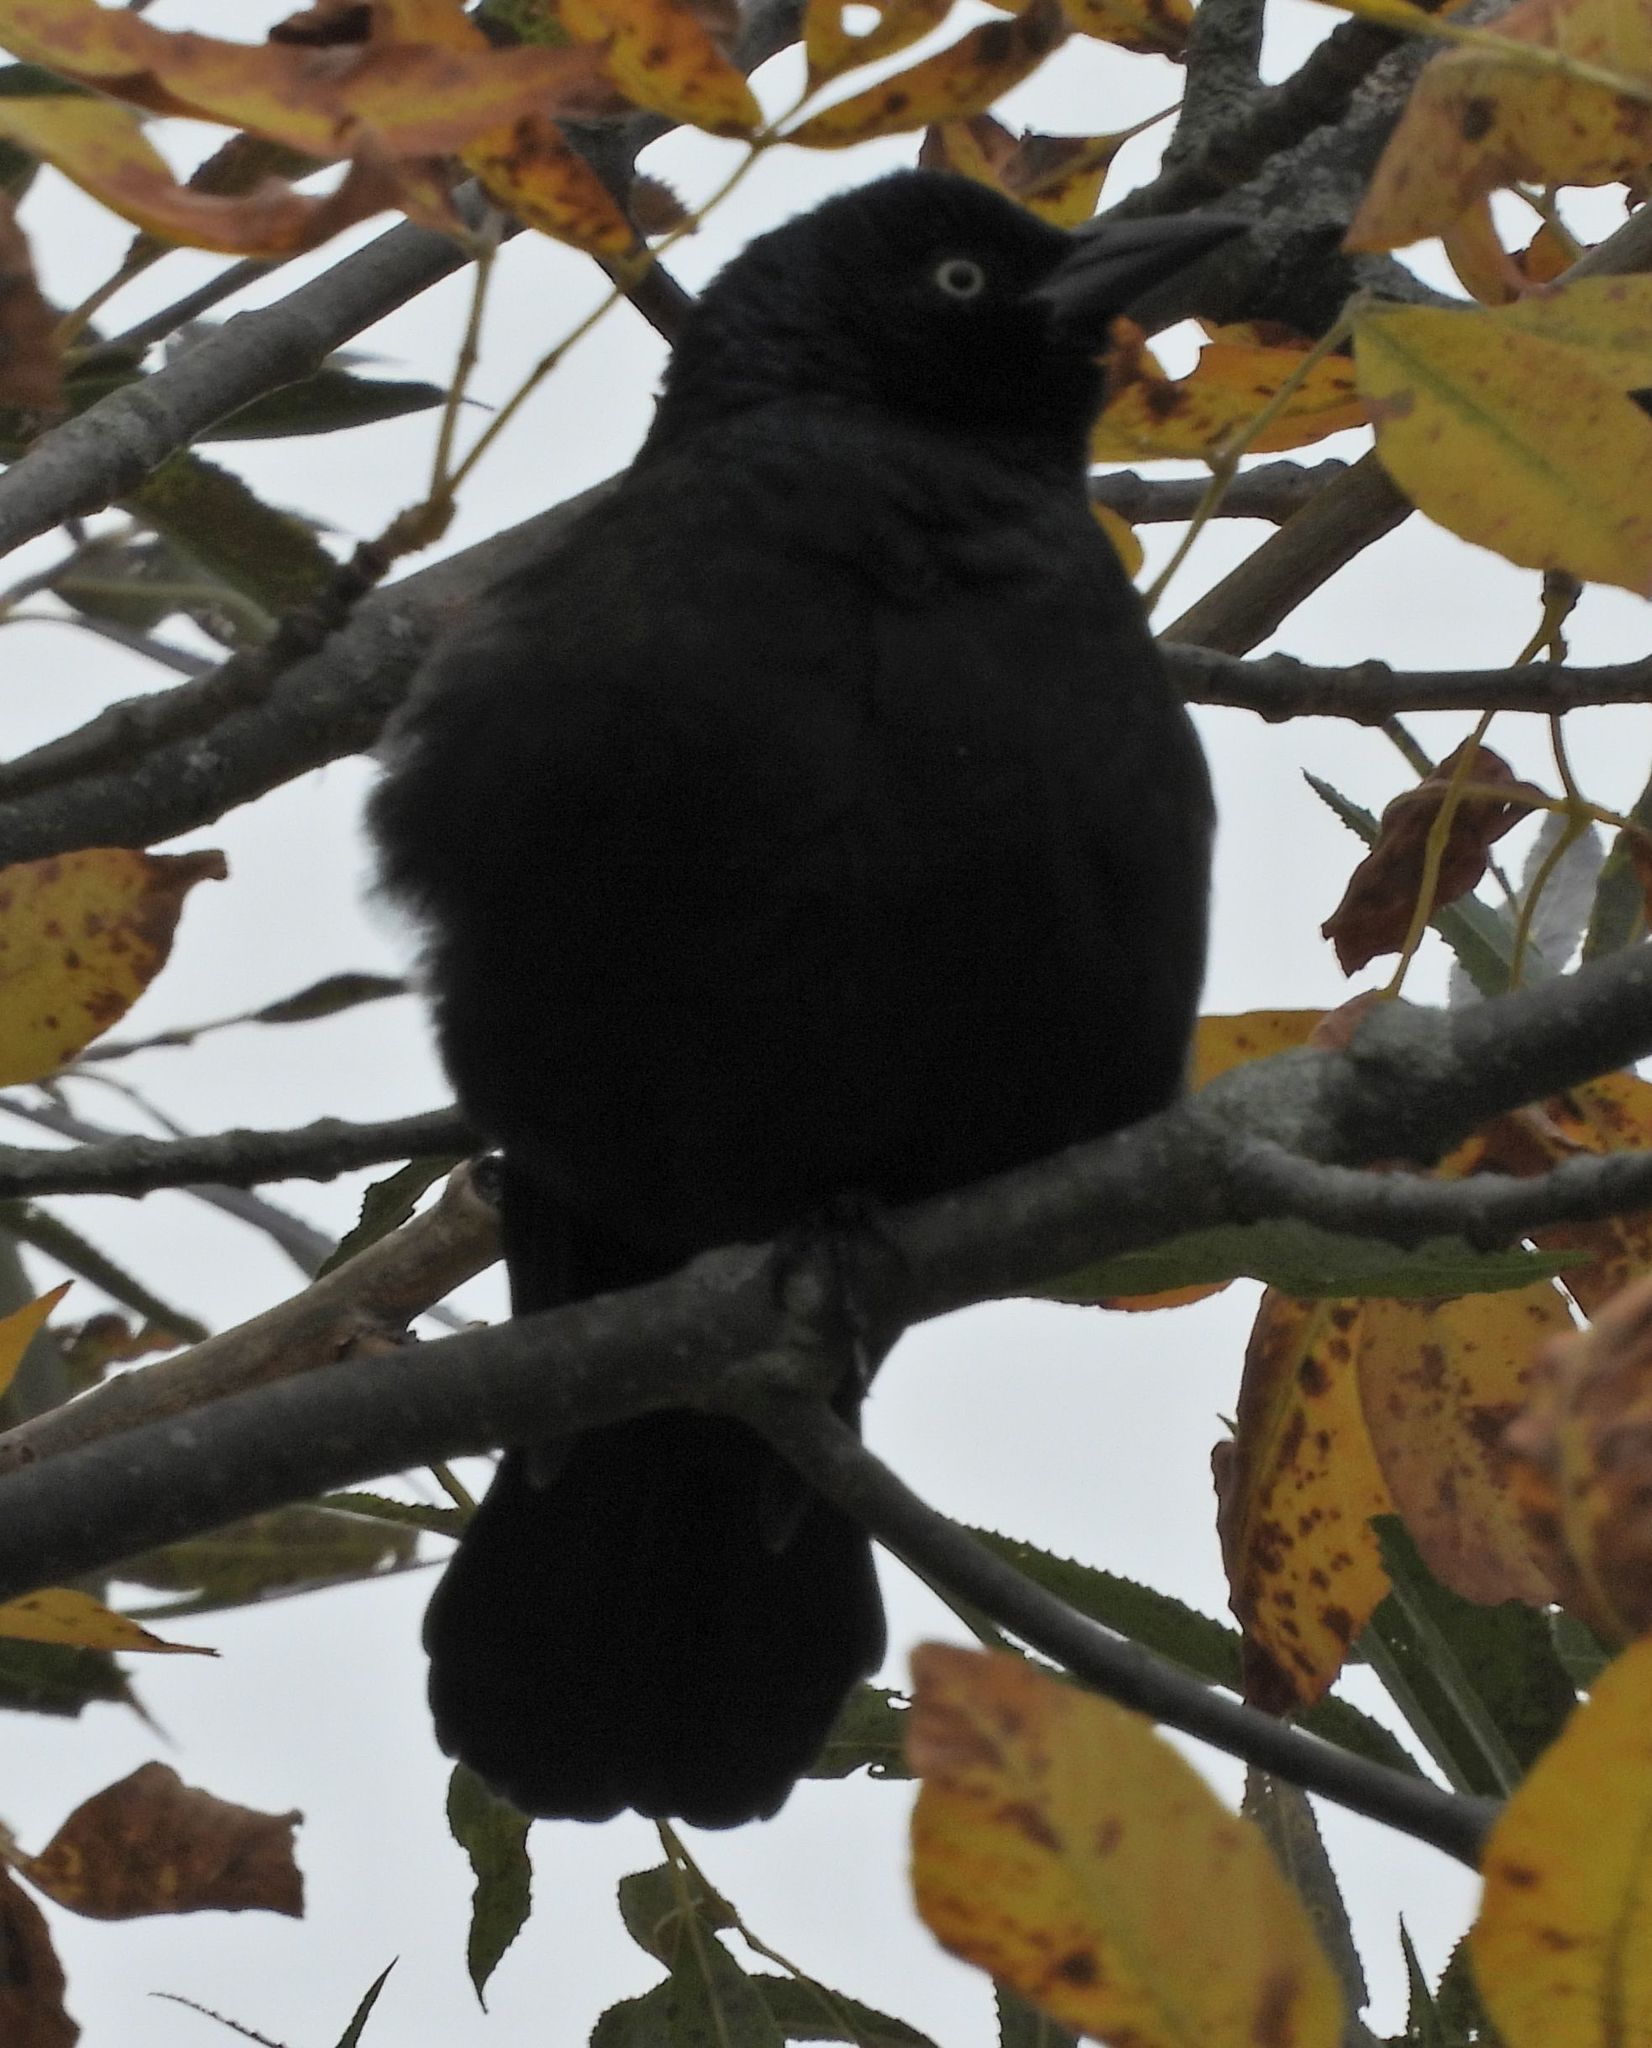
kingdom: Animalia
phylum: Chordata
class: Aves
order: Passeriformes
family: Icteridae
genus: Quiscalus
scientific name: Quiscalus quiscula
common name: Common grackle
